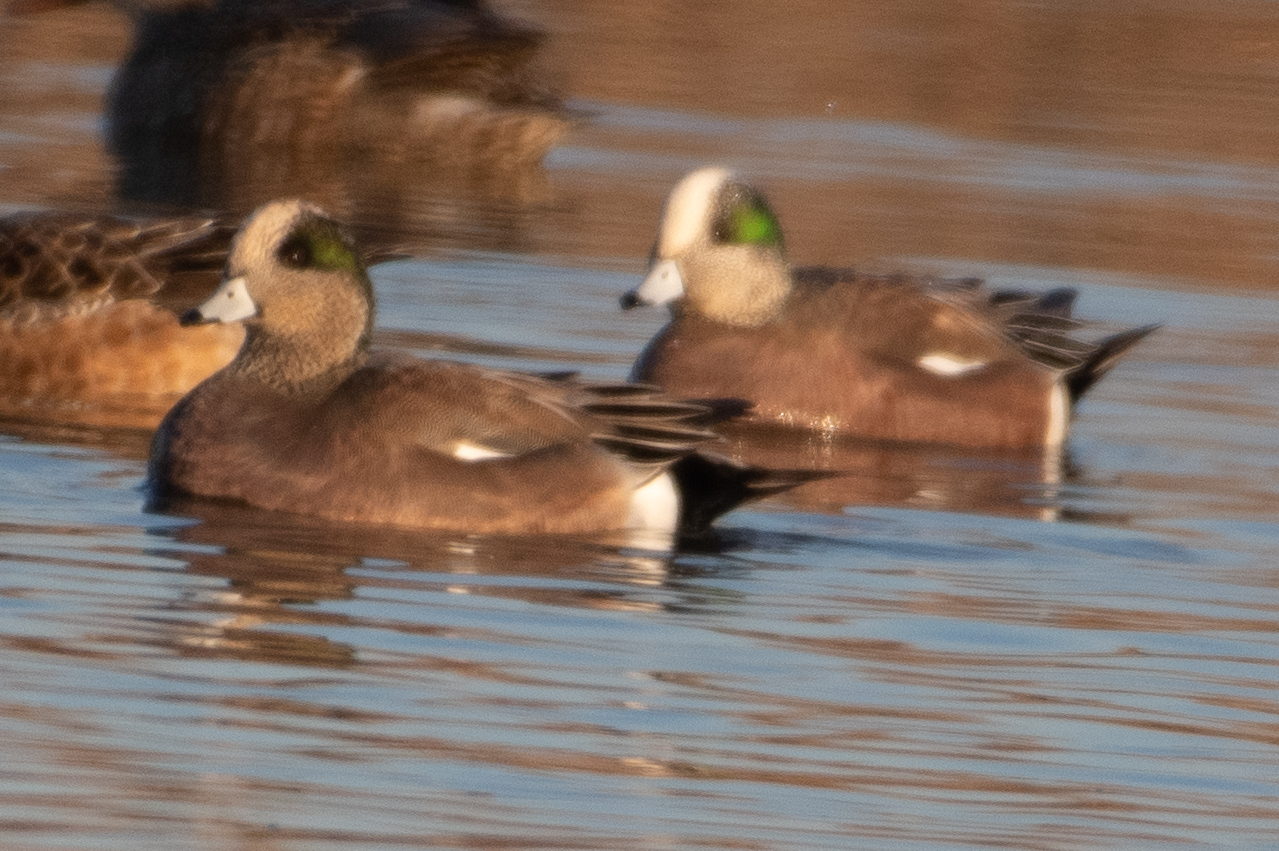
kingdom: Animalia
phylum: Chordata
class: Aves
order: Anseriformes
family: Anatidae
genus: Mareca
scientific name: Mareca americana
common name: American wigeon
